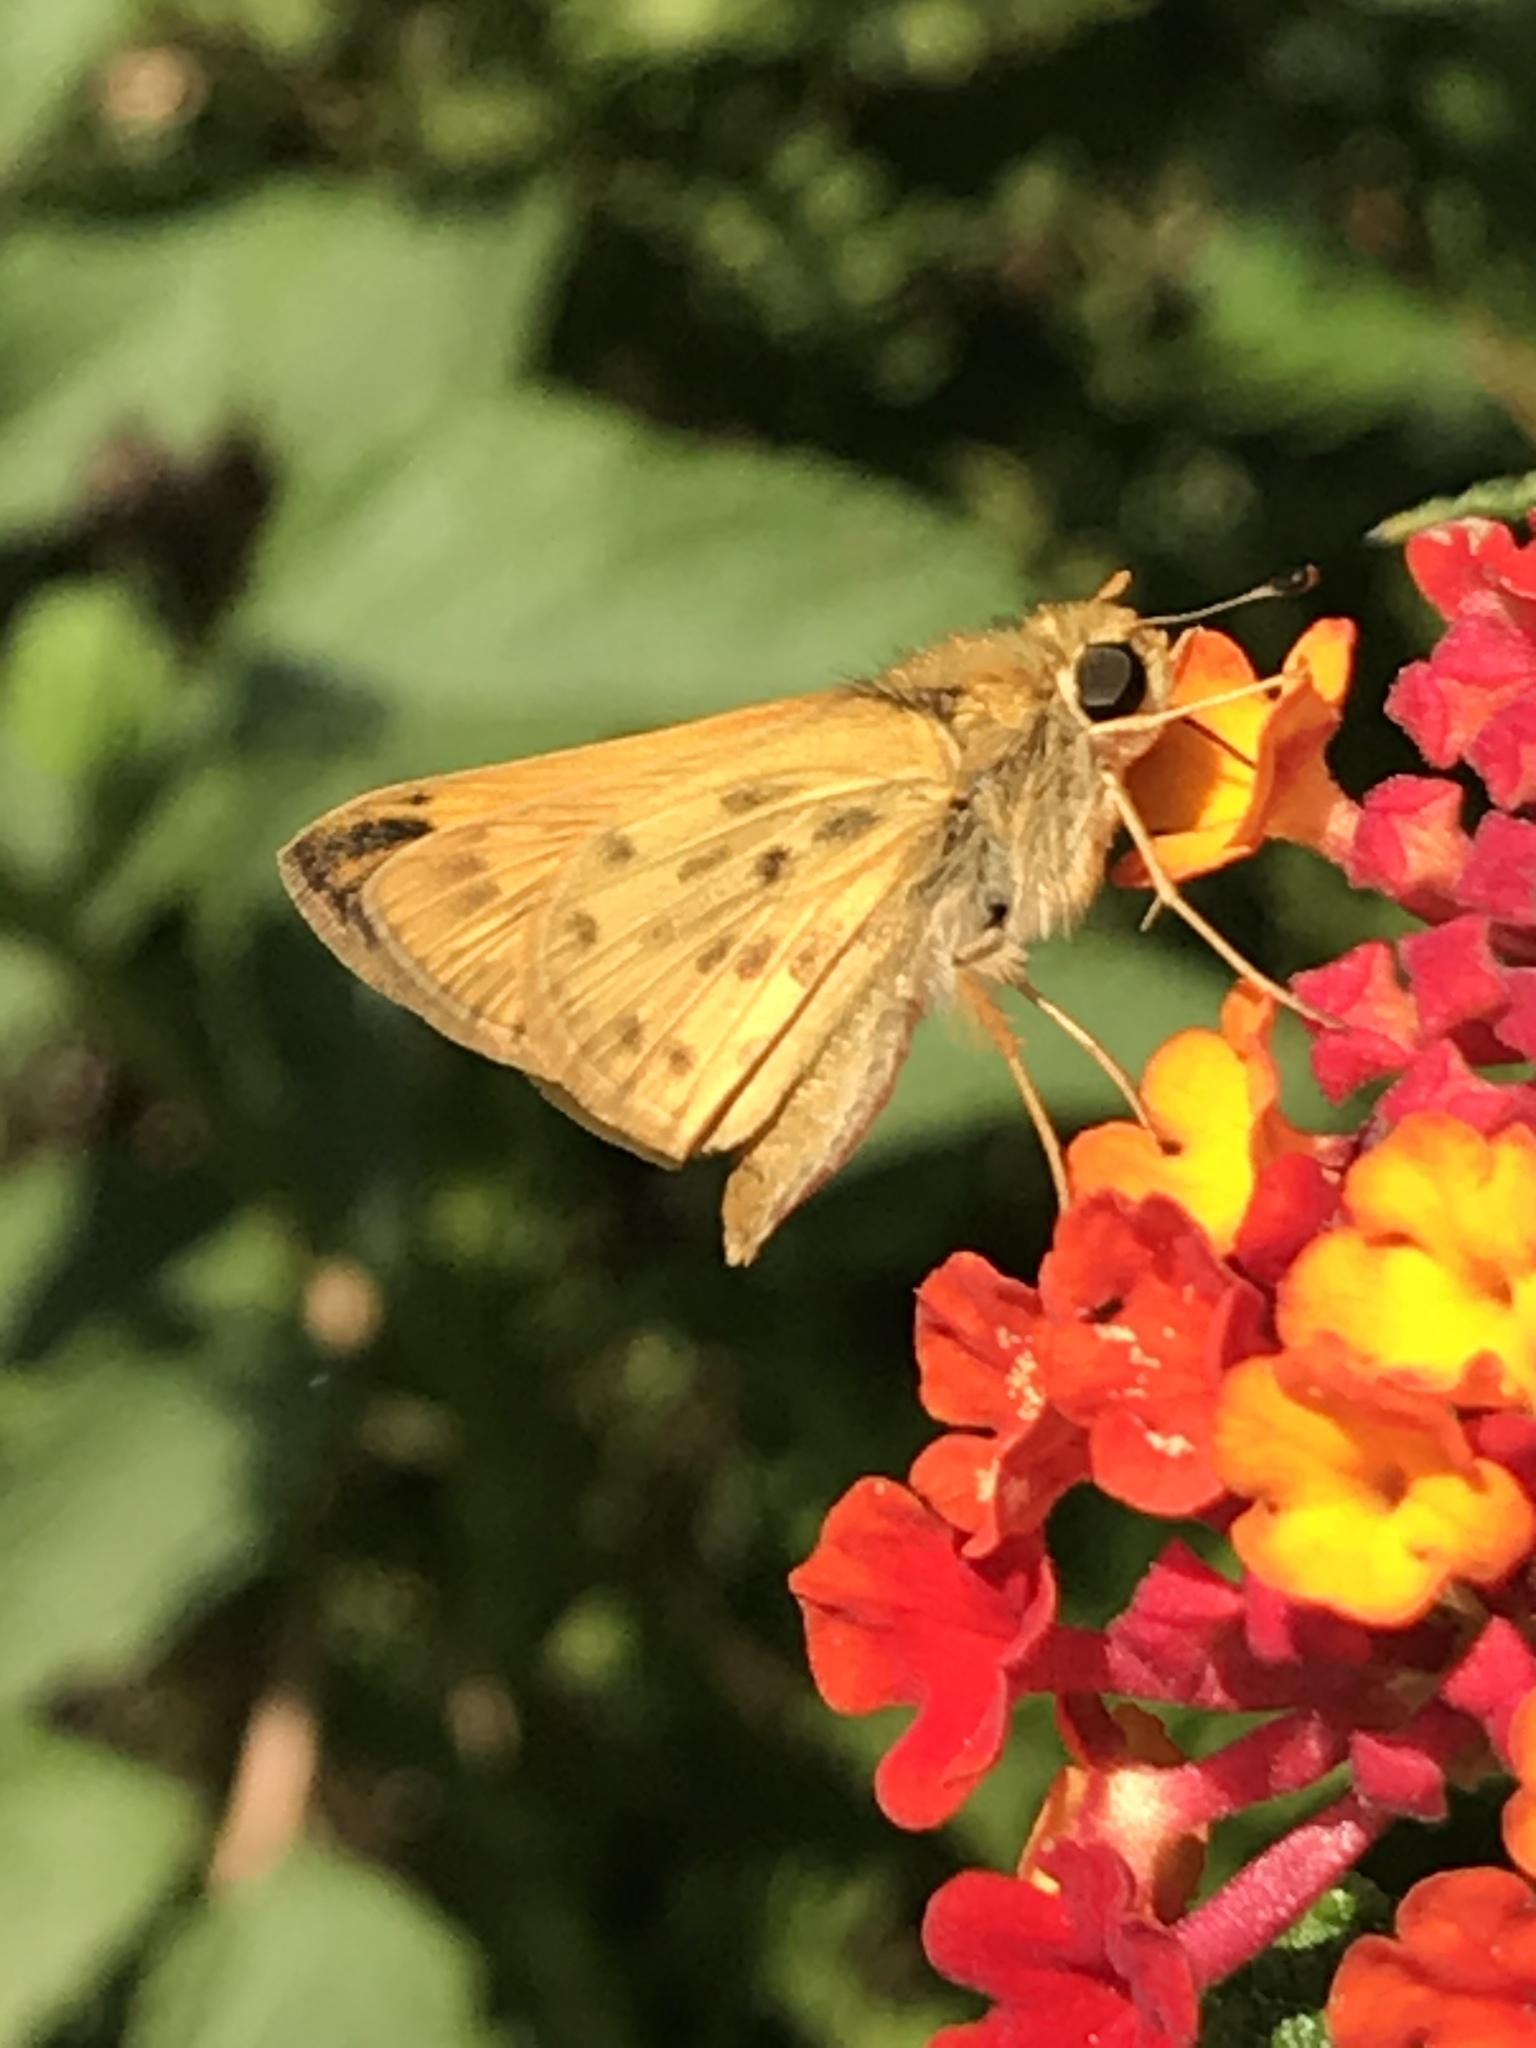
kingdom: Animalia
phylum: Arthropoda
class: Insecta
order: Lepidoptera
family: Hesperiidae
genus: Hylephila
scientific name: Hylephila phyleus
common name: Fiery skipper
